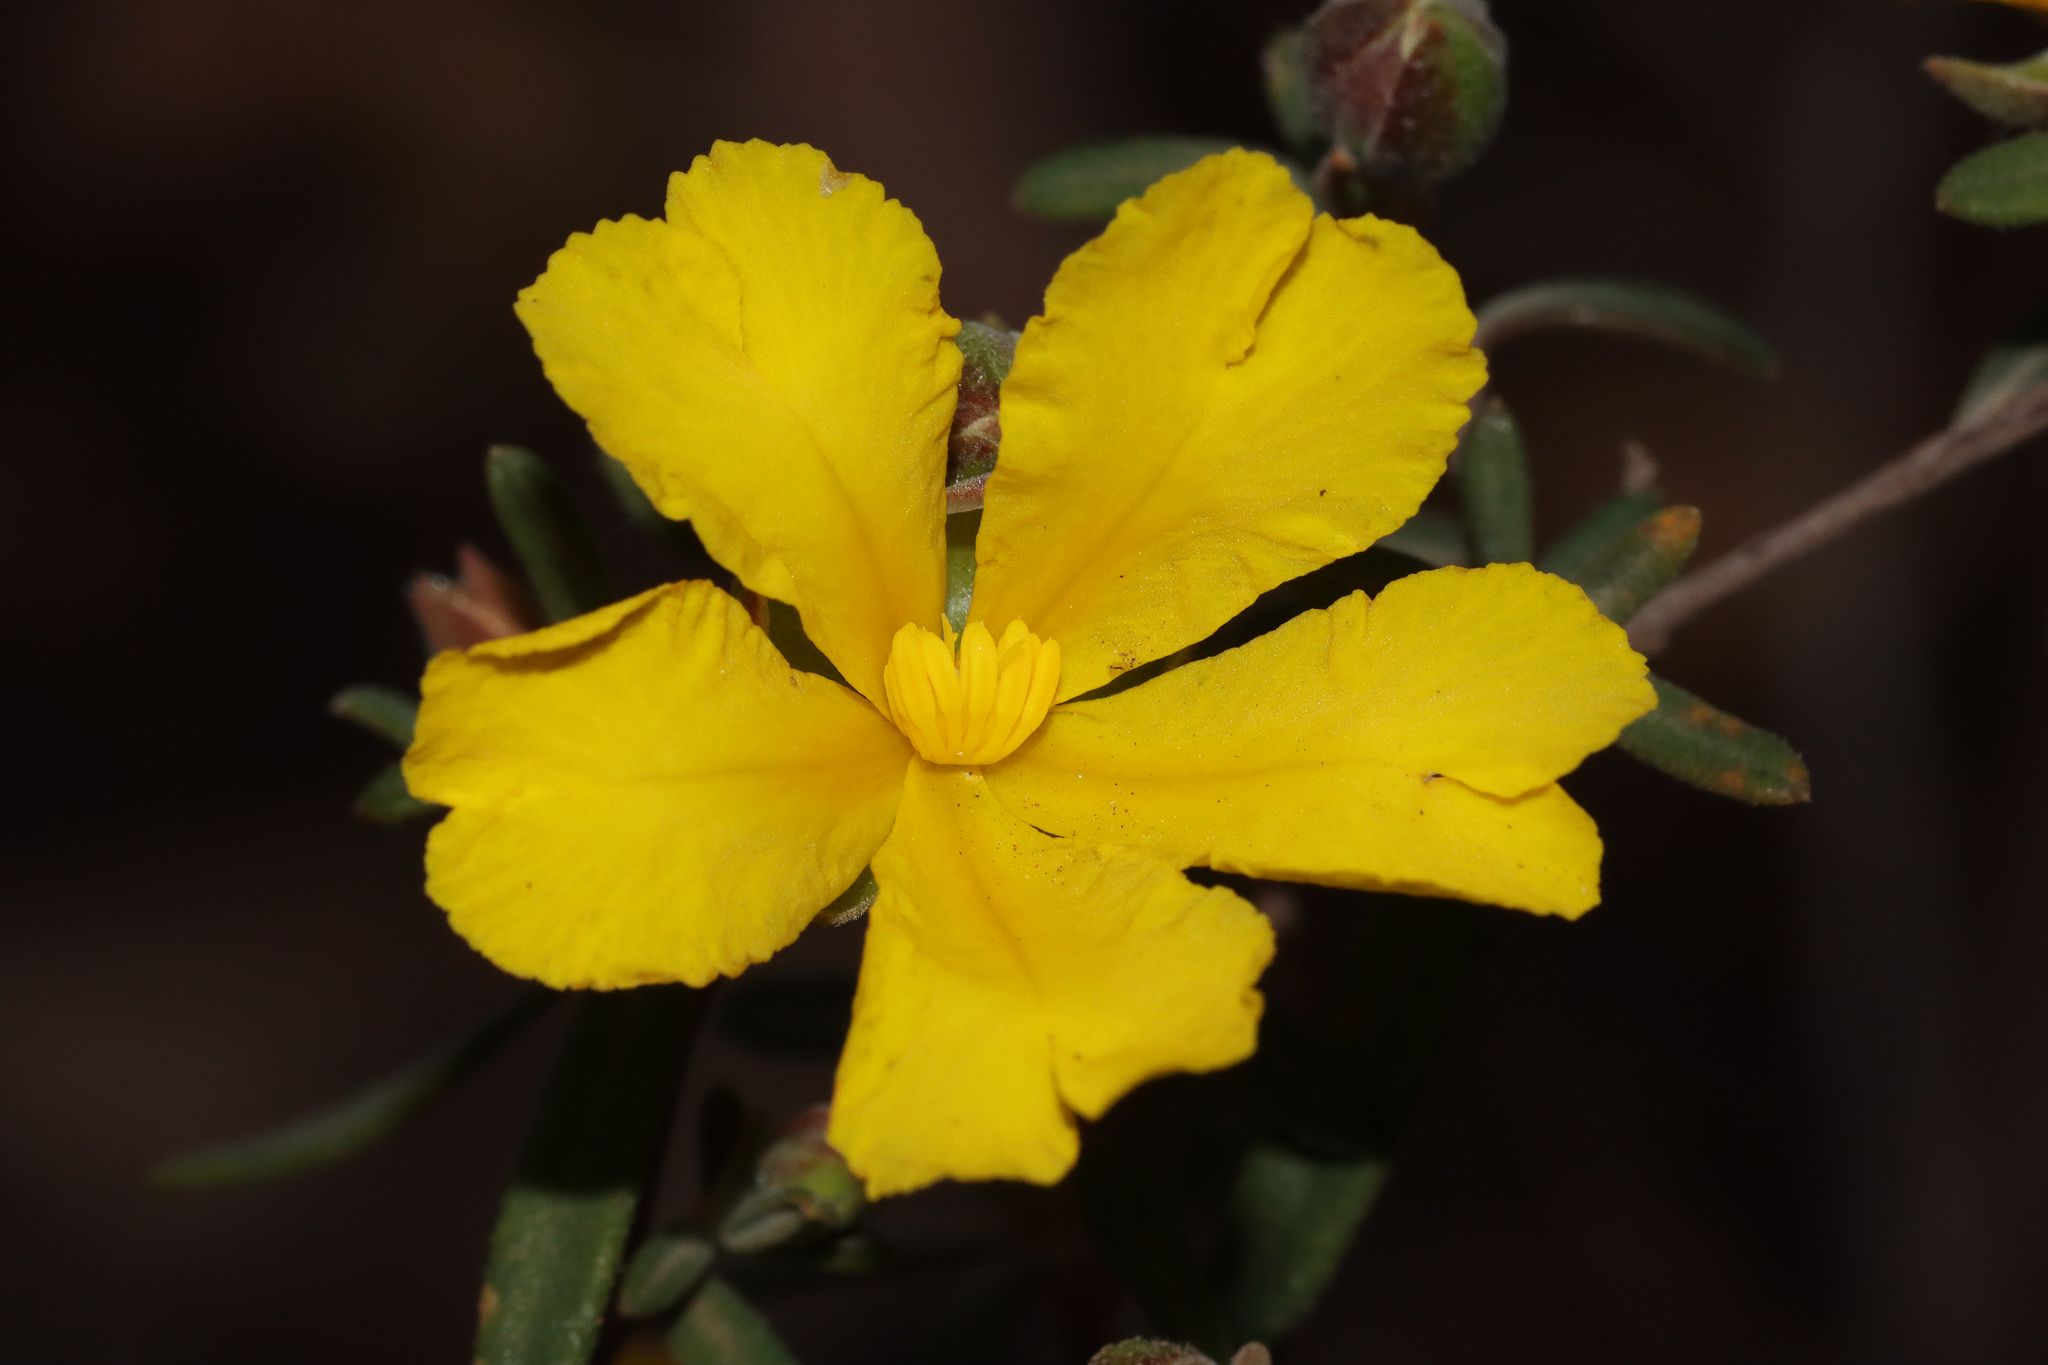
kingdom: Plantae
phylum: Tracheophyta
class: Magnoliopsida
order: Dilleniales
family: Dilleniaceae
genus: Hibbertia
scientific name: Hibbertia hypericoides
